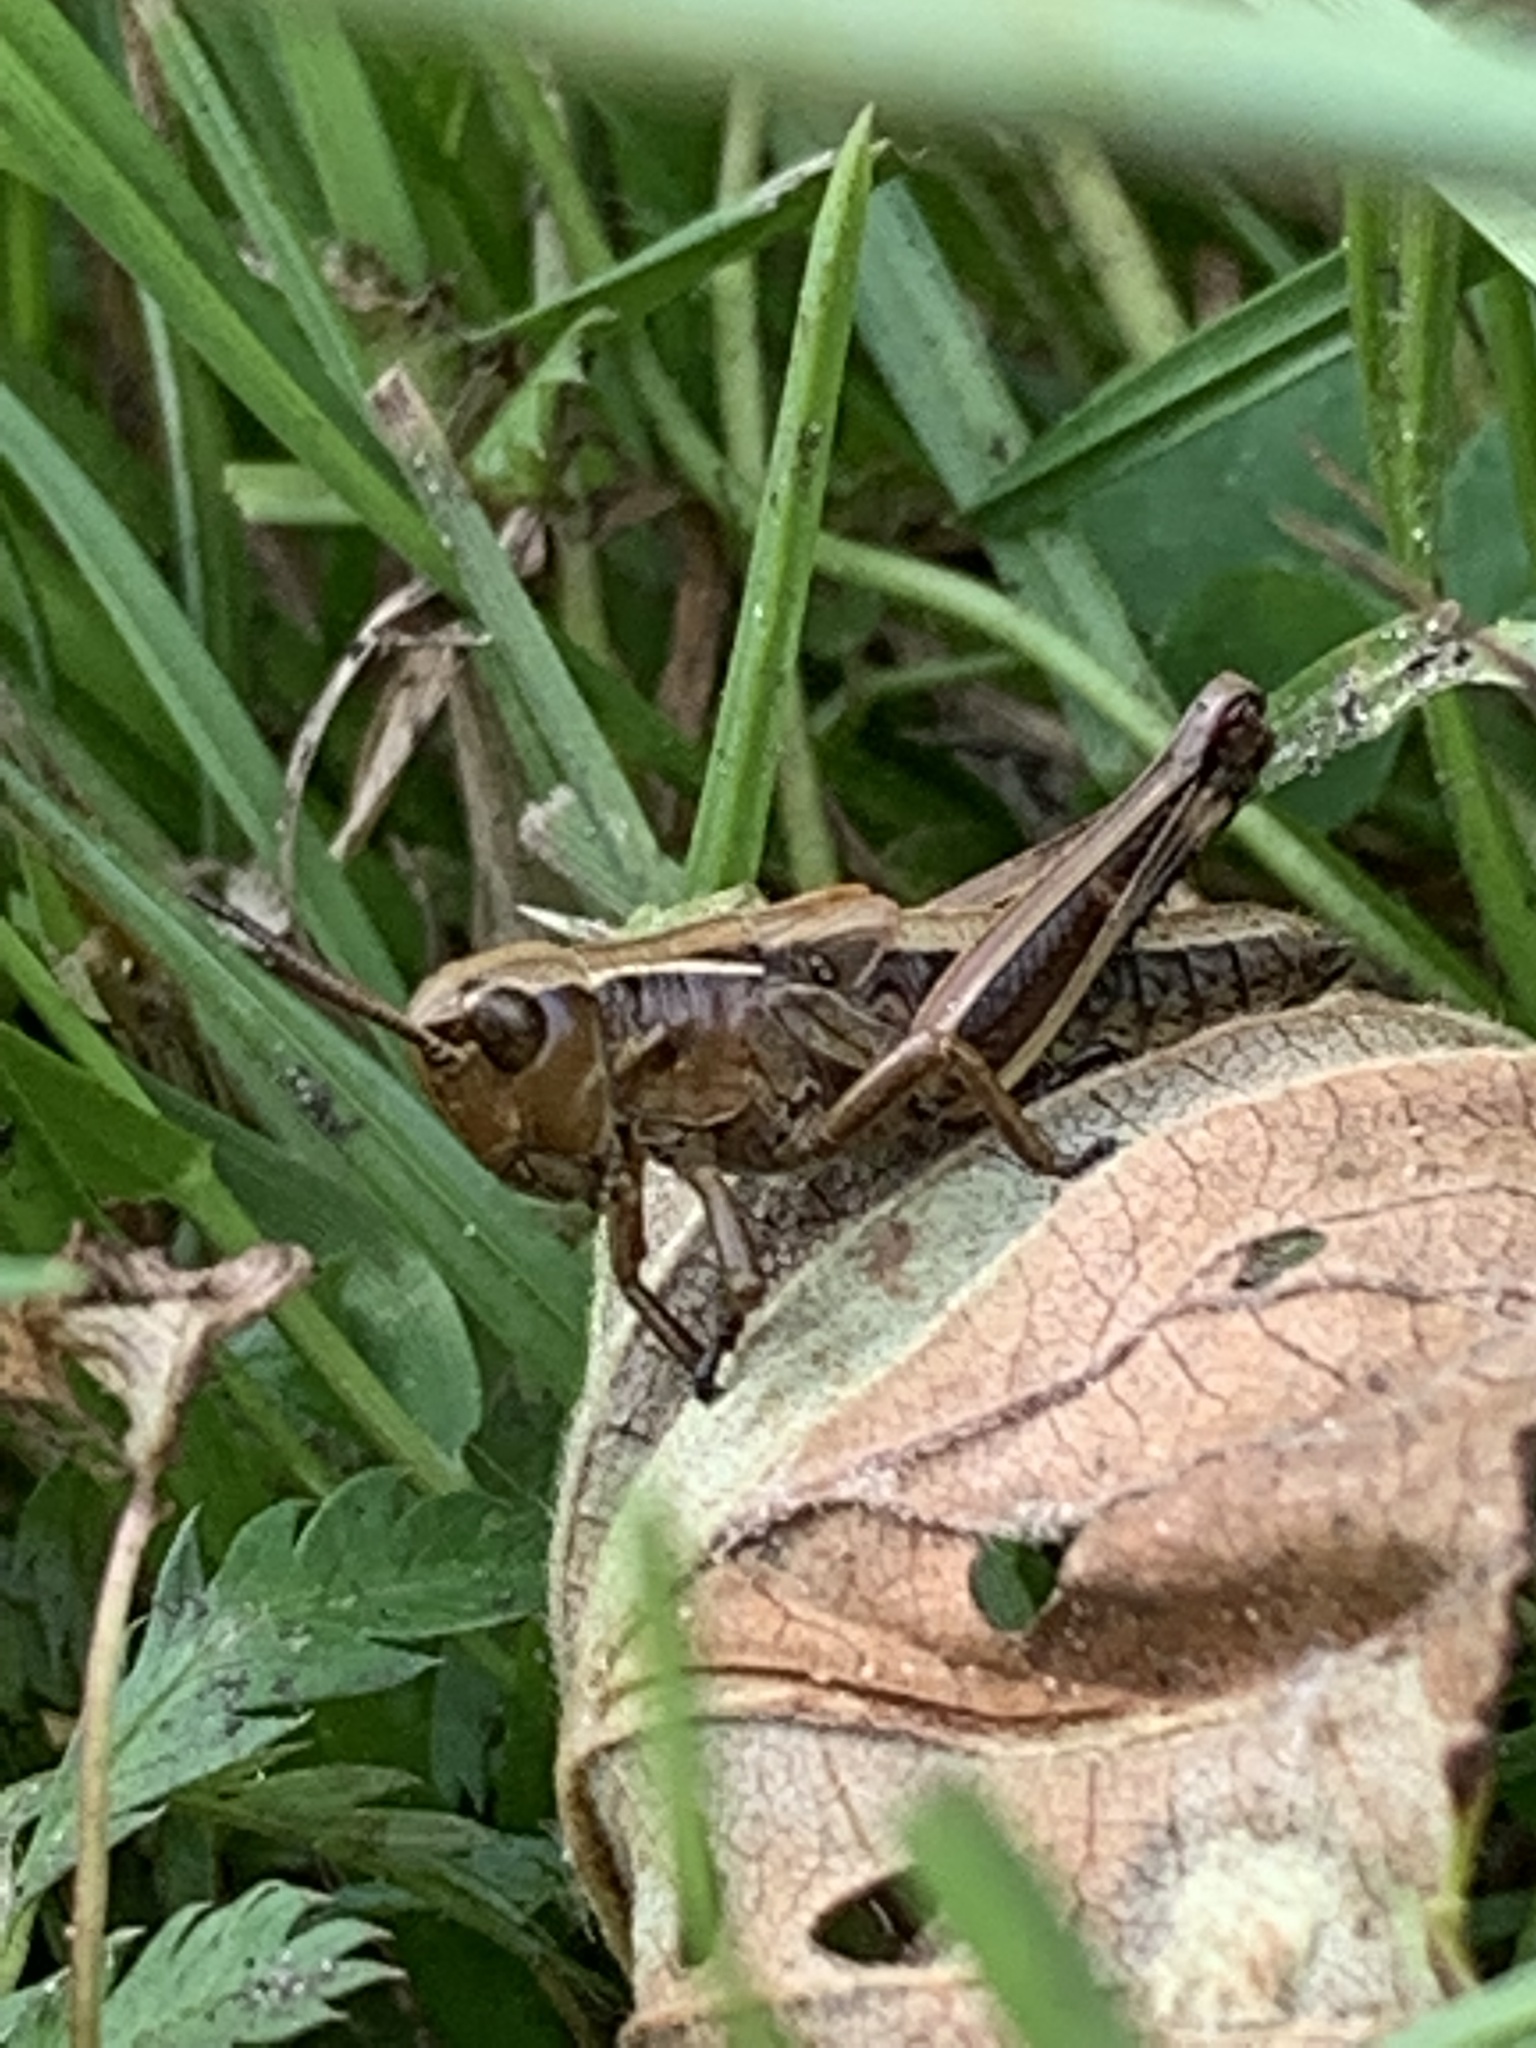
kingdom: Animalia
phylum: Arthropoda
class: Insecta
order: Orthoptera
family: Acrididae
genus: Stethophyma
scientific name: Stethophyma grossum
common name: Large marsh grasshopper
